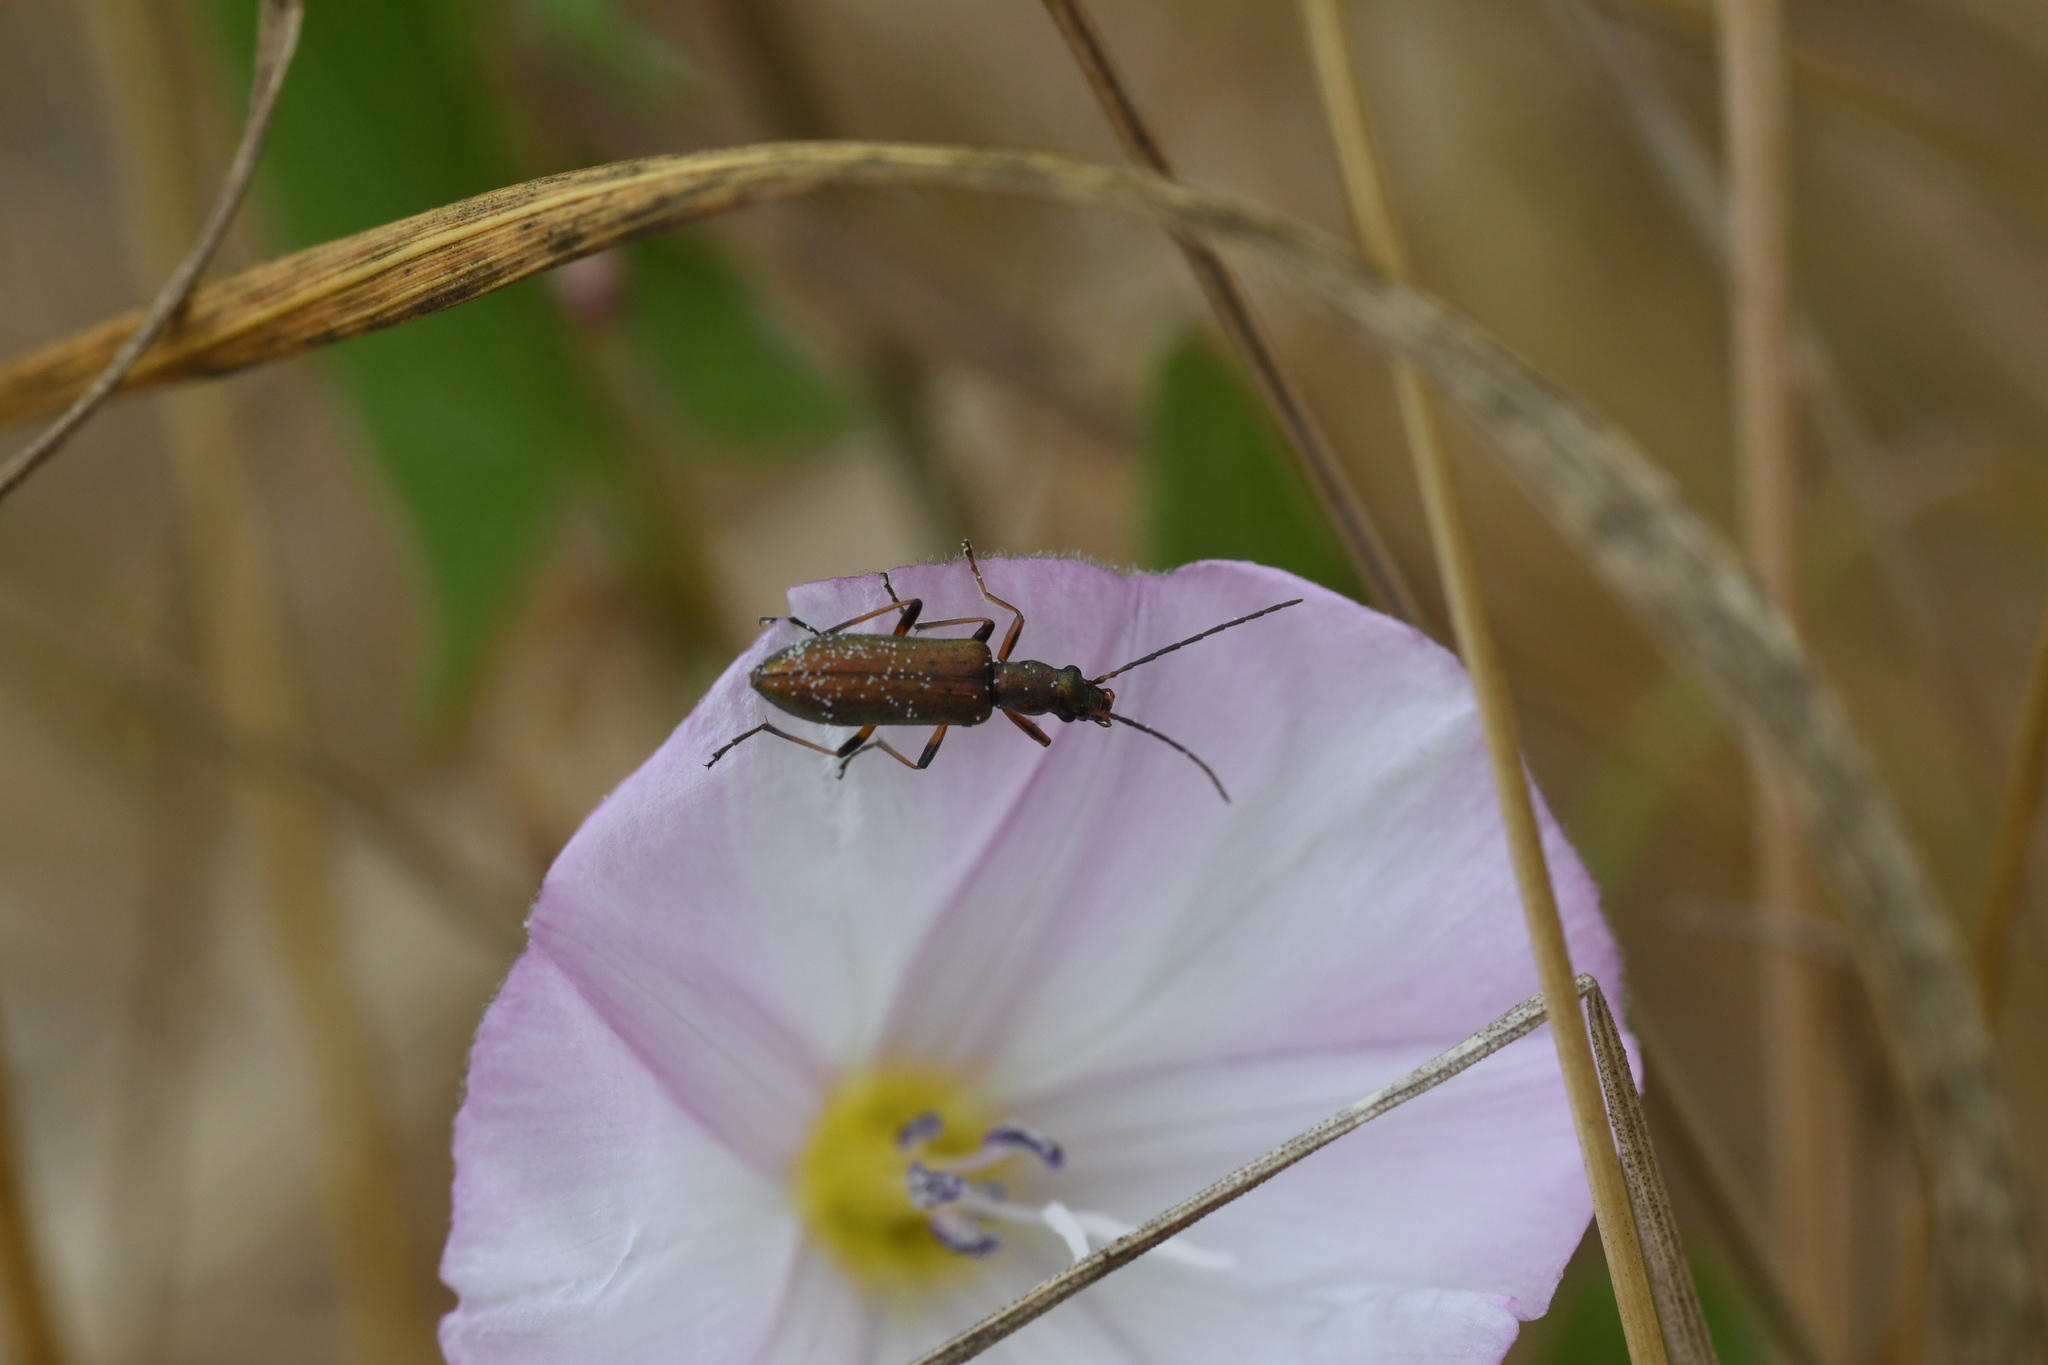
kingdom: Animalia
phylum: Arthropoda
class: Insecta
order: Coleoptera
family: Oedemeridae
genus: Chrysanthia
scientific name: Chrysanthia geniculata
